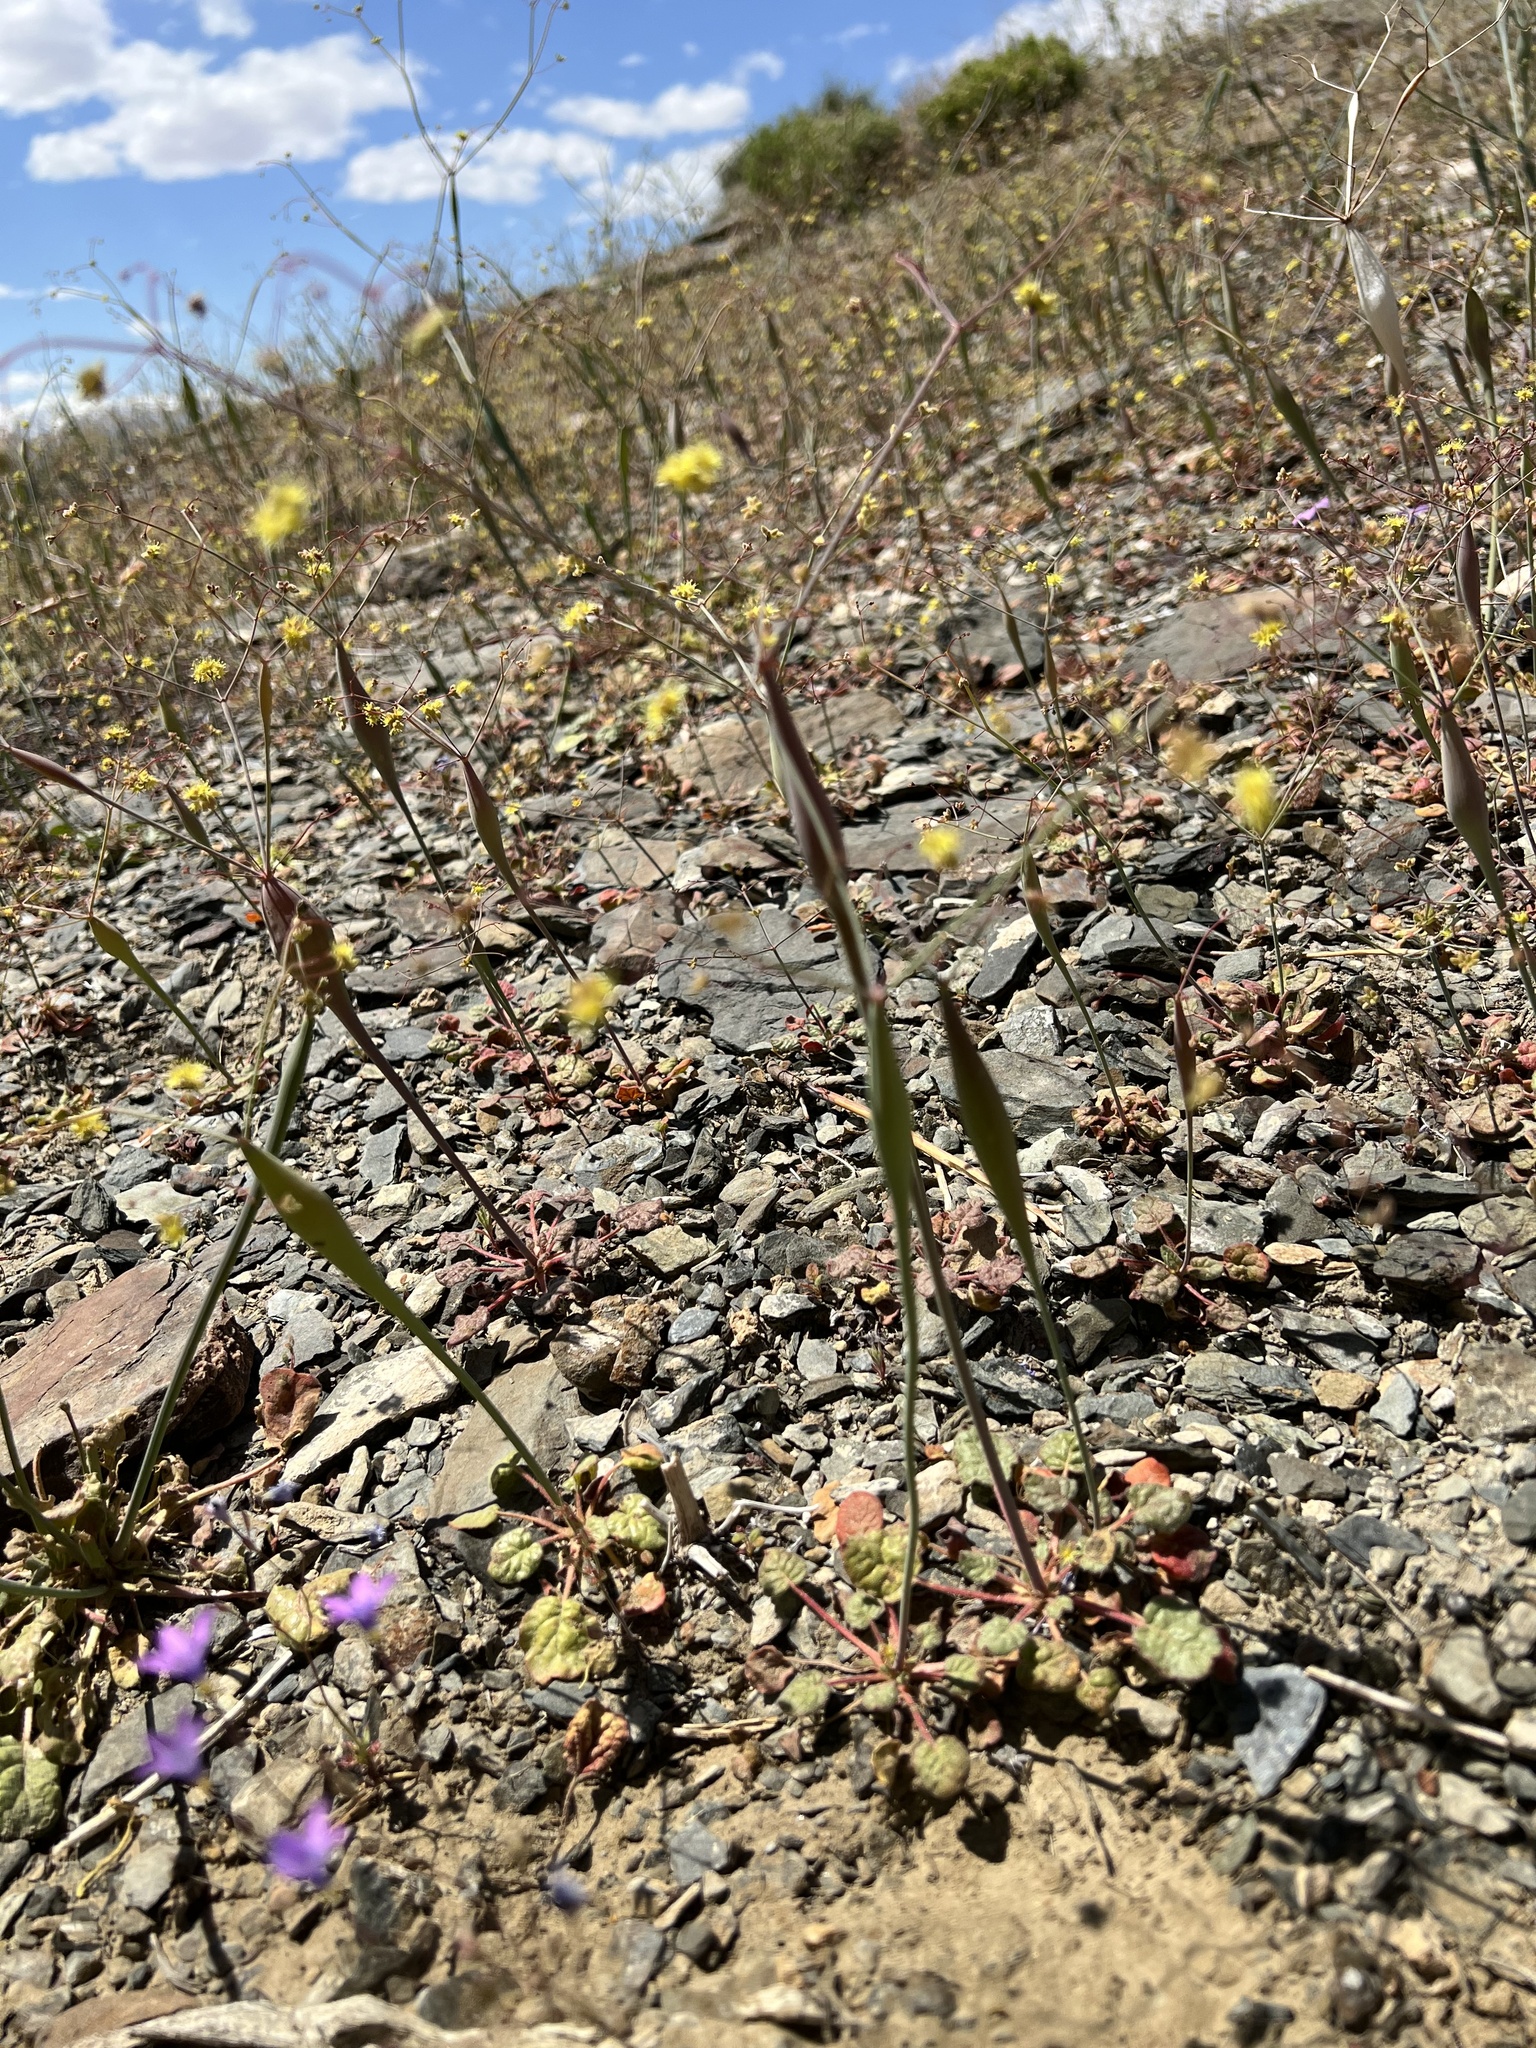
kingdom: Plantae
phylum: Tracheophyta
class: Magnoliopsida
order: Caryophyllales
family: Polygonaceae
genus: Eriogonum
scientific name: Eriogonum inflatum
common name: Desert trumpet
